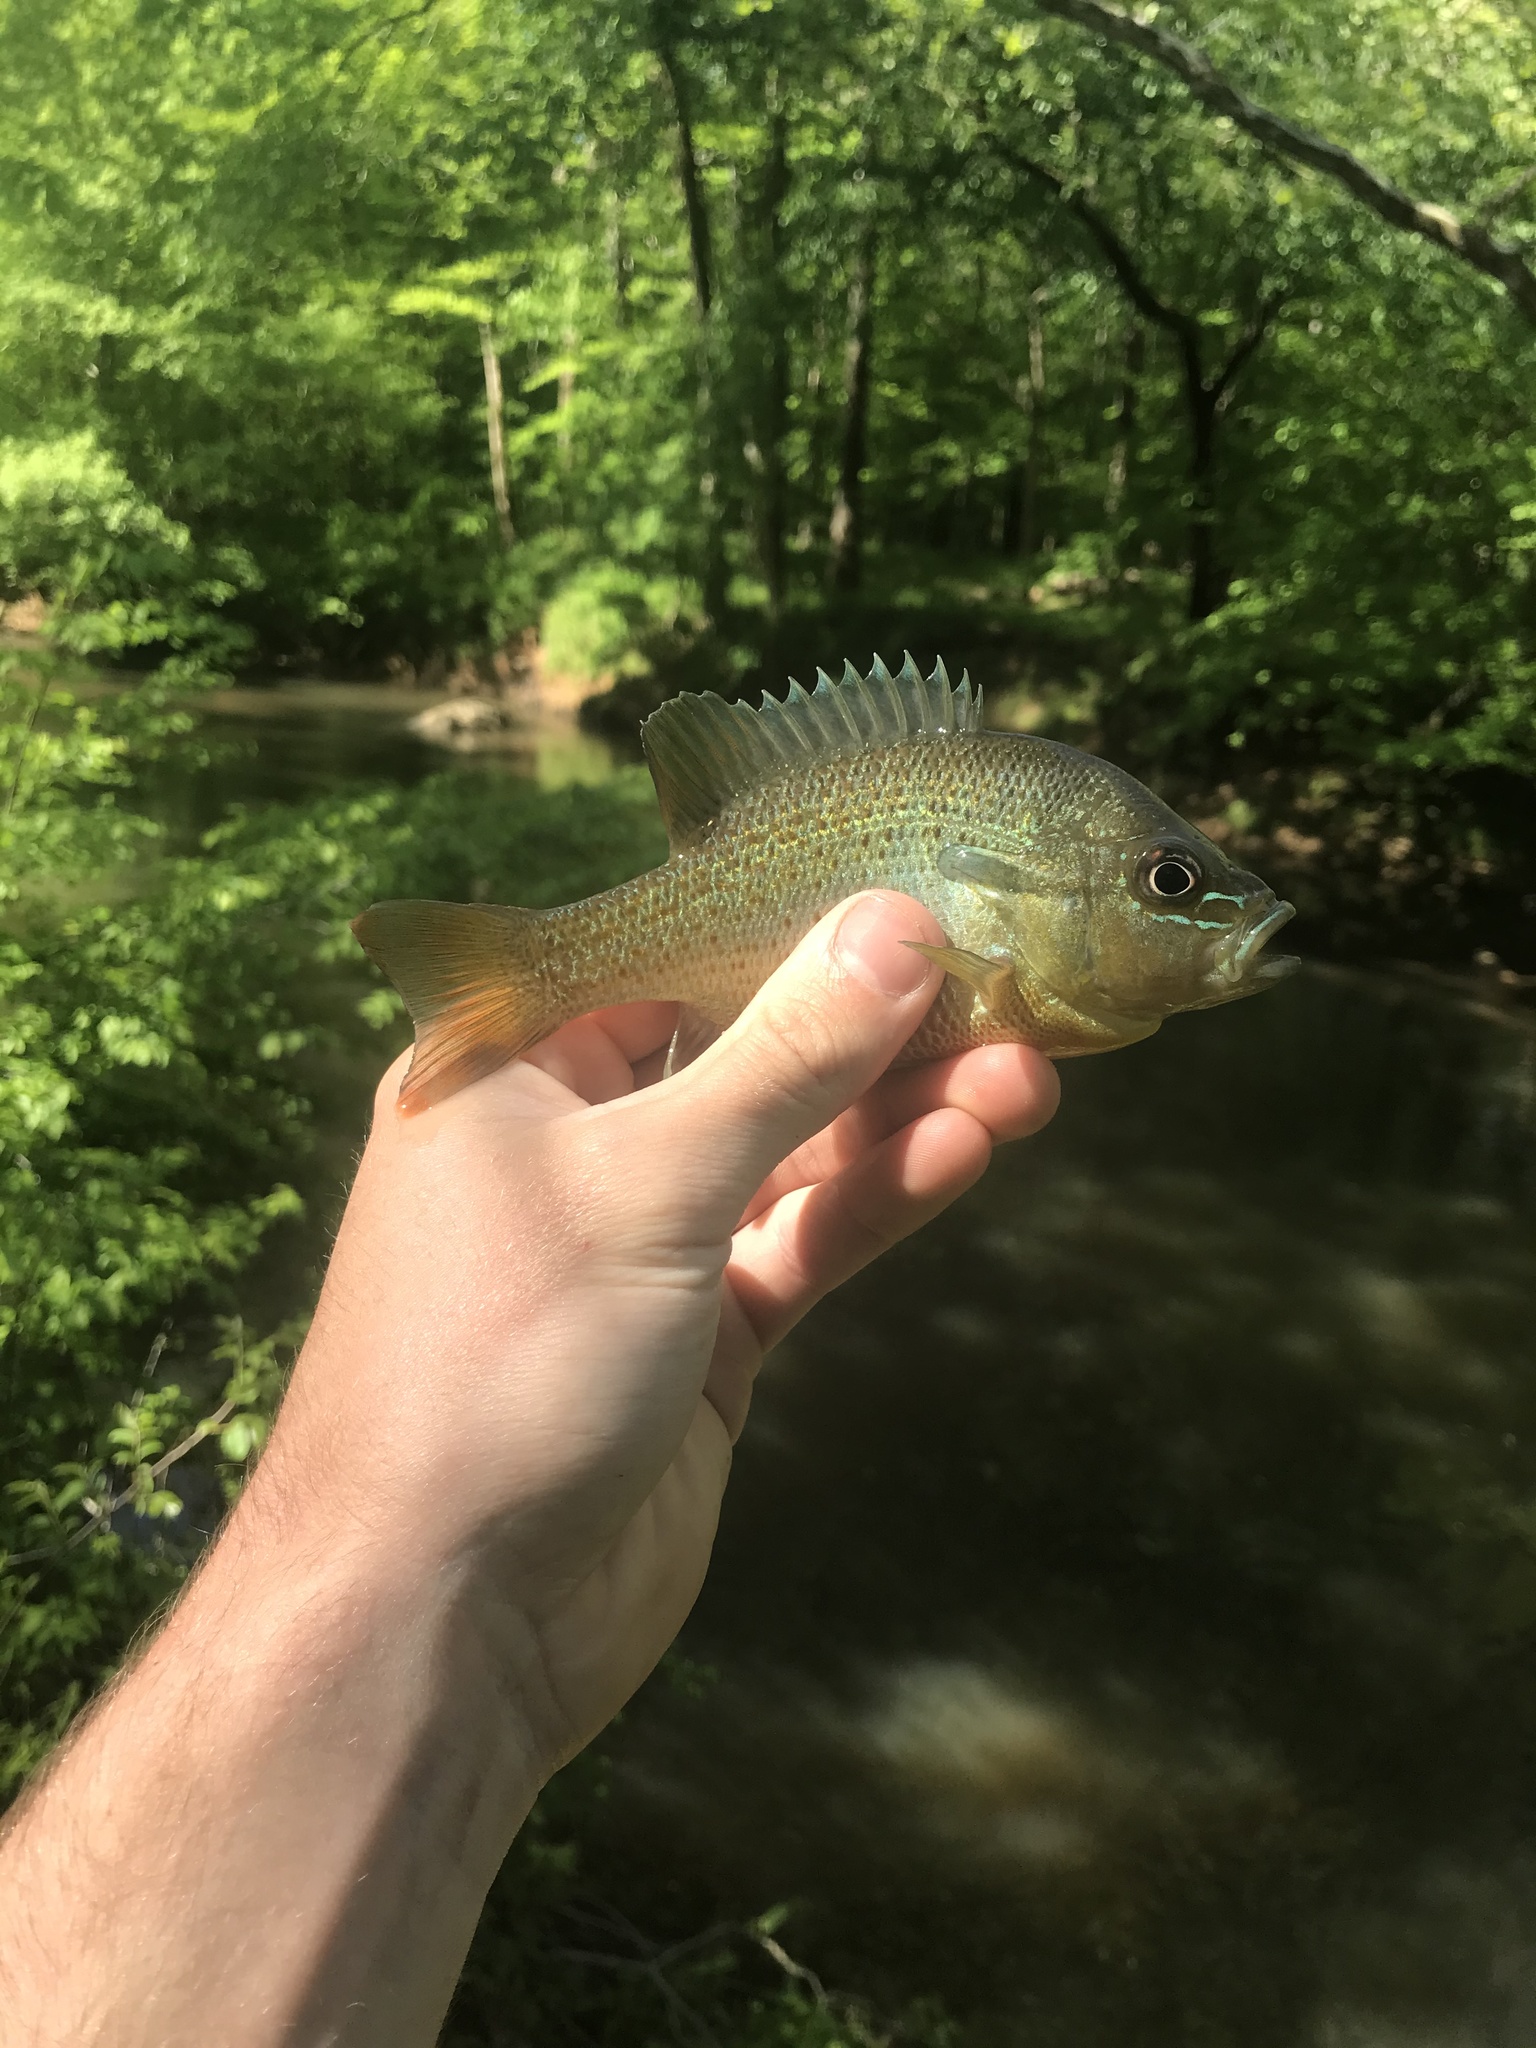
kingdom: Animalia
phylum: Chordata
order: Perciformes
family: Centrarchidae
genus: Lepomis
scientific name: Lepomis auritus
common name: Redbreast sunfish
